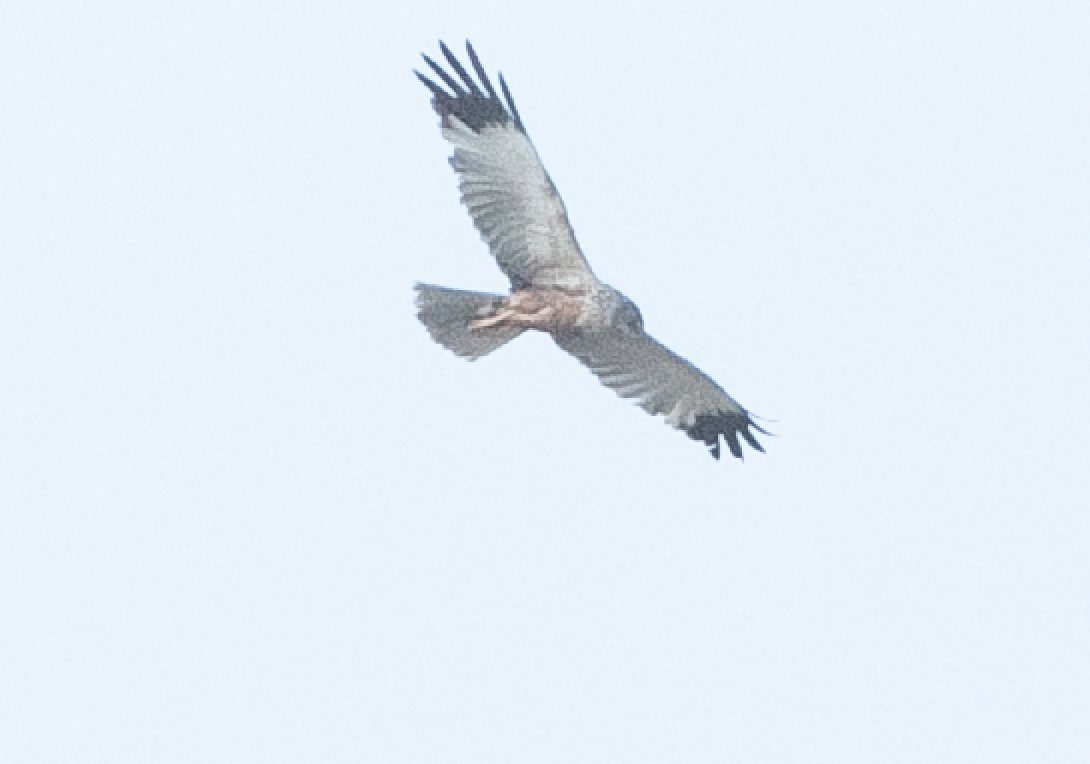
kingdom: Animalia
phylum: Chordata
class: Aves
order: Accipitriformes
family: Accipitridae
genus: Circus
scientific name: Circus aeruginosus
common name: Western marsh harrier
